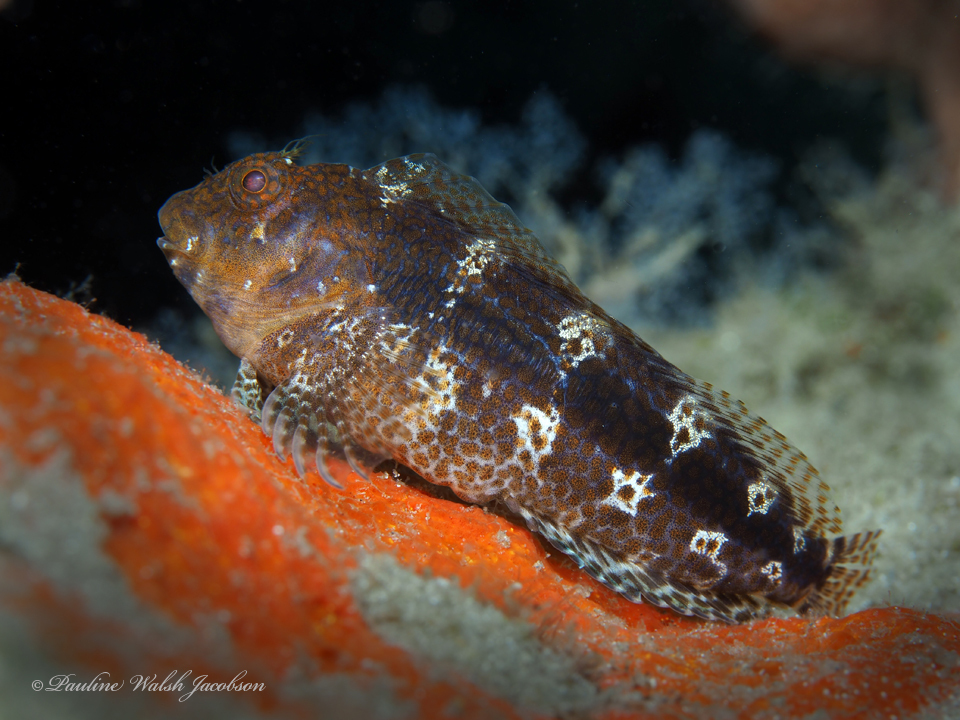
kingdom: Animalia
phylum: Chordata
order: Perciformes
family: Blenniidae
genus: Hypleurochilus
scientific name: Hypleurochilus bermudensis
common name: Barred blenny
